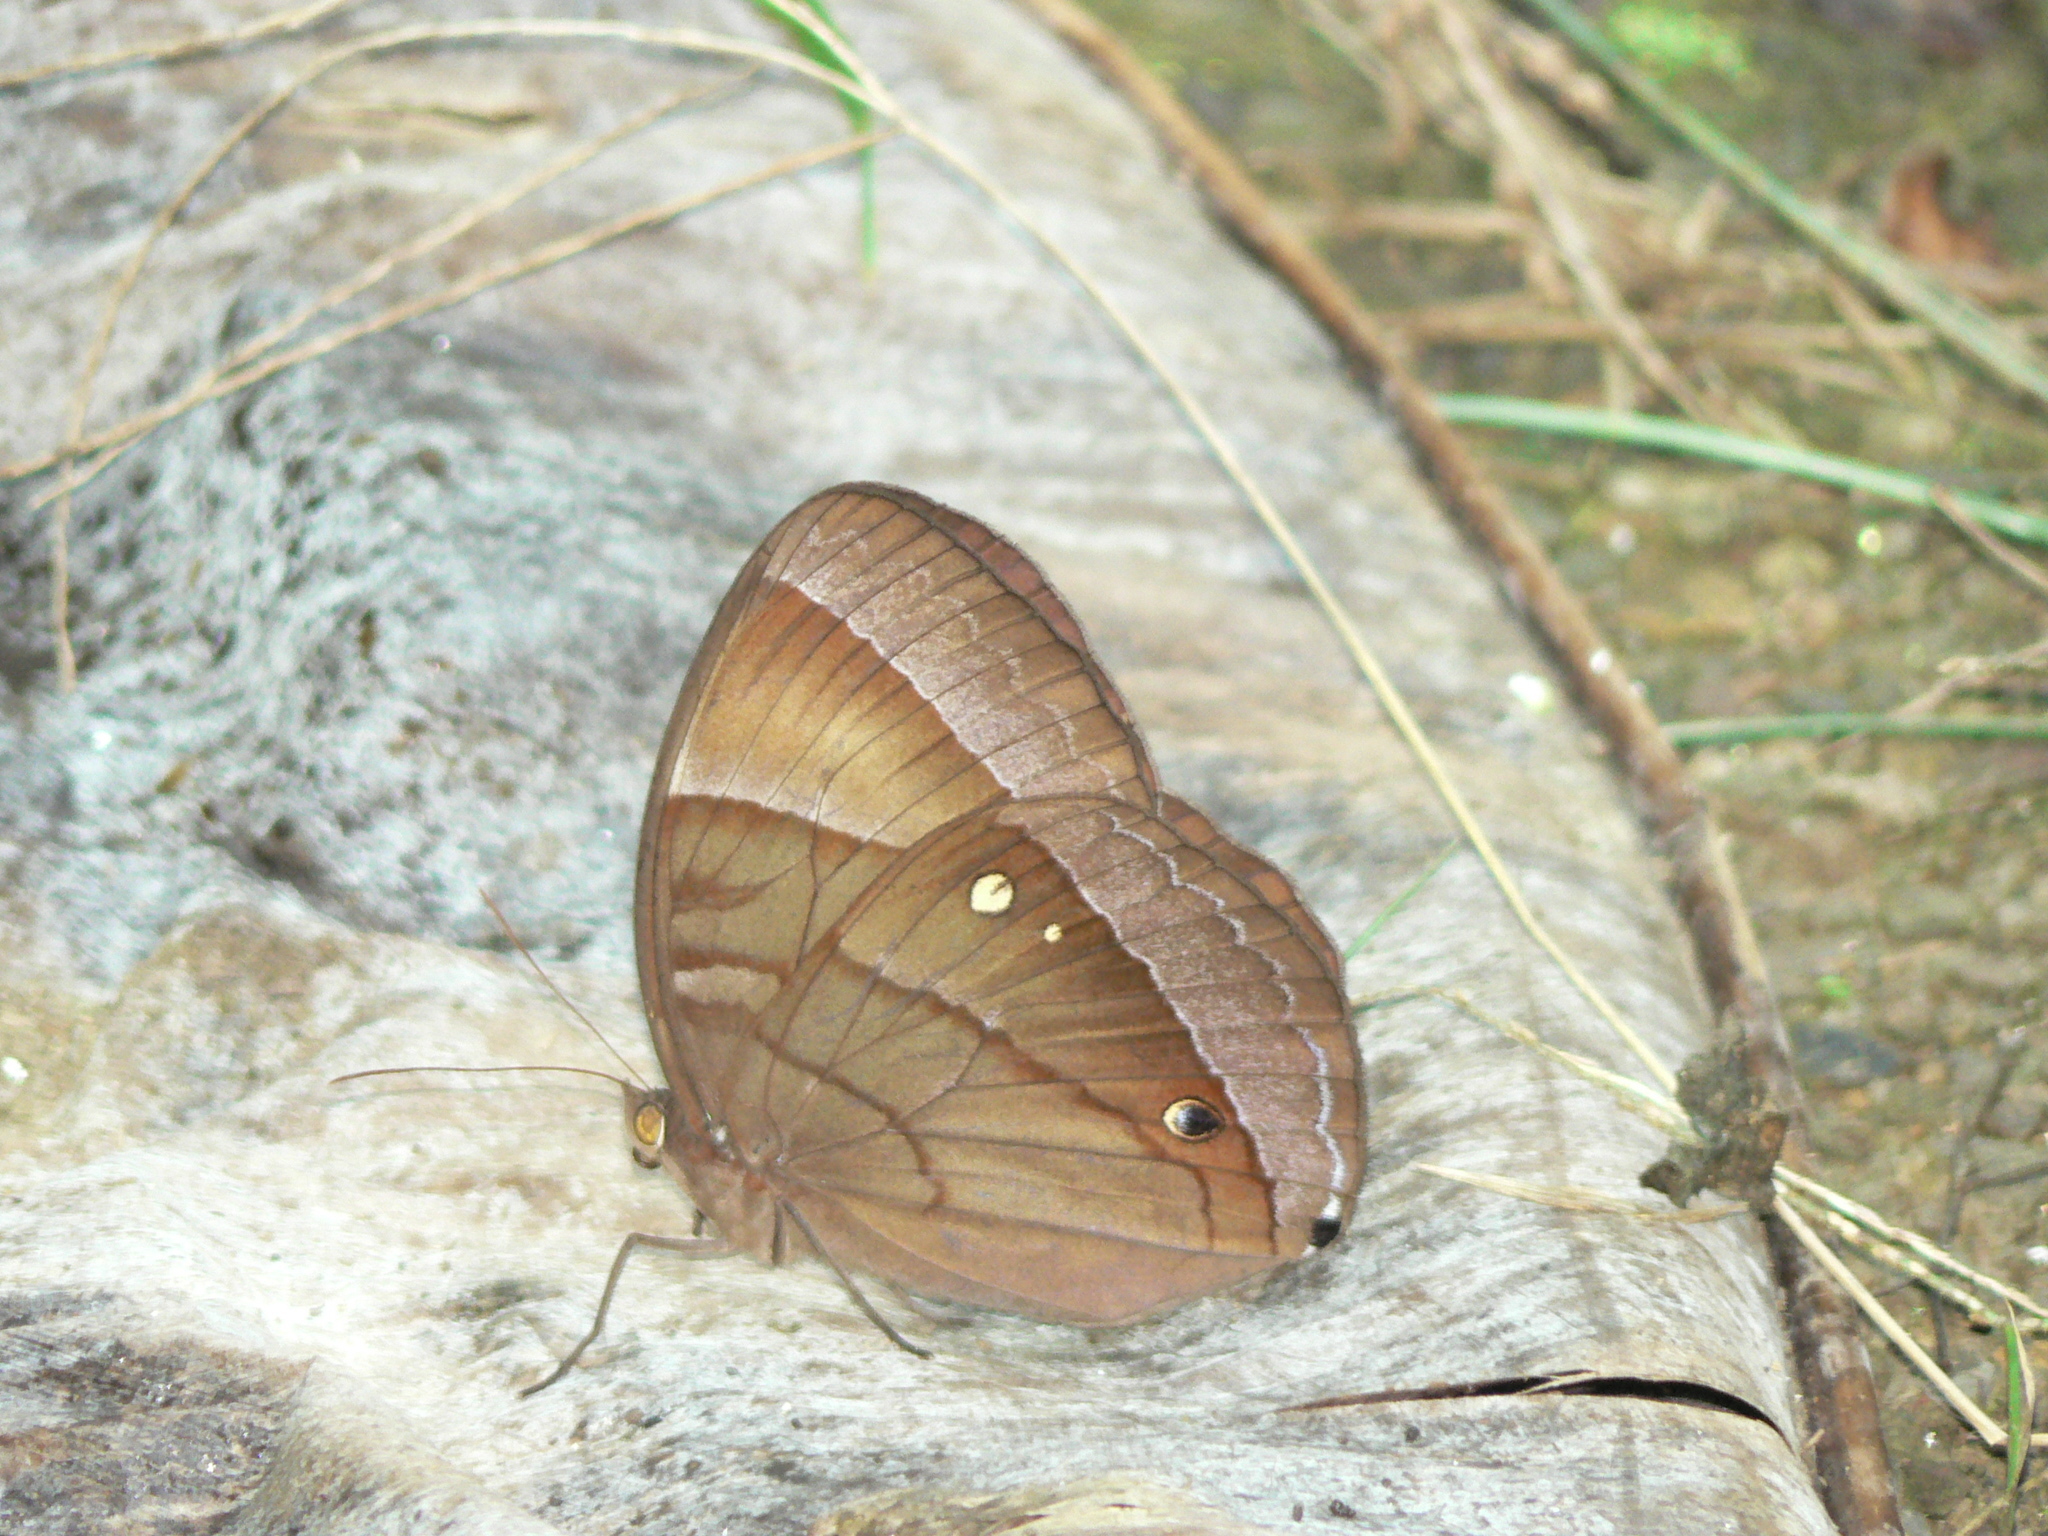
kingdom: Animalia
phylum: Arthropoda
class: Insecta
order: Lepidoptera
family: Nymphalidae
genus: Thaumantis
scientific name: Thaumantis diores
